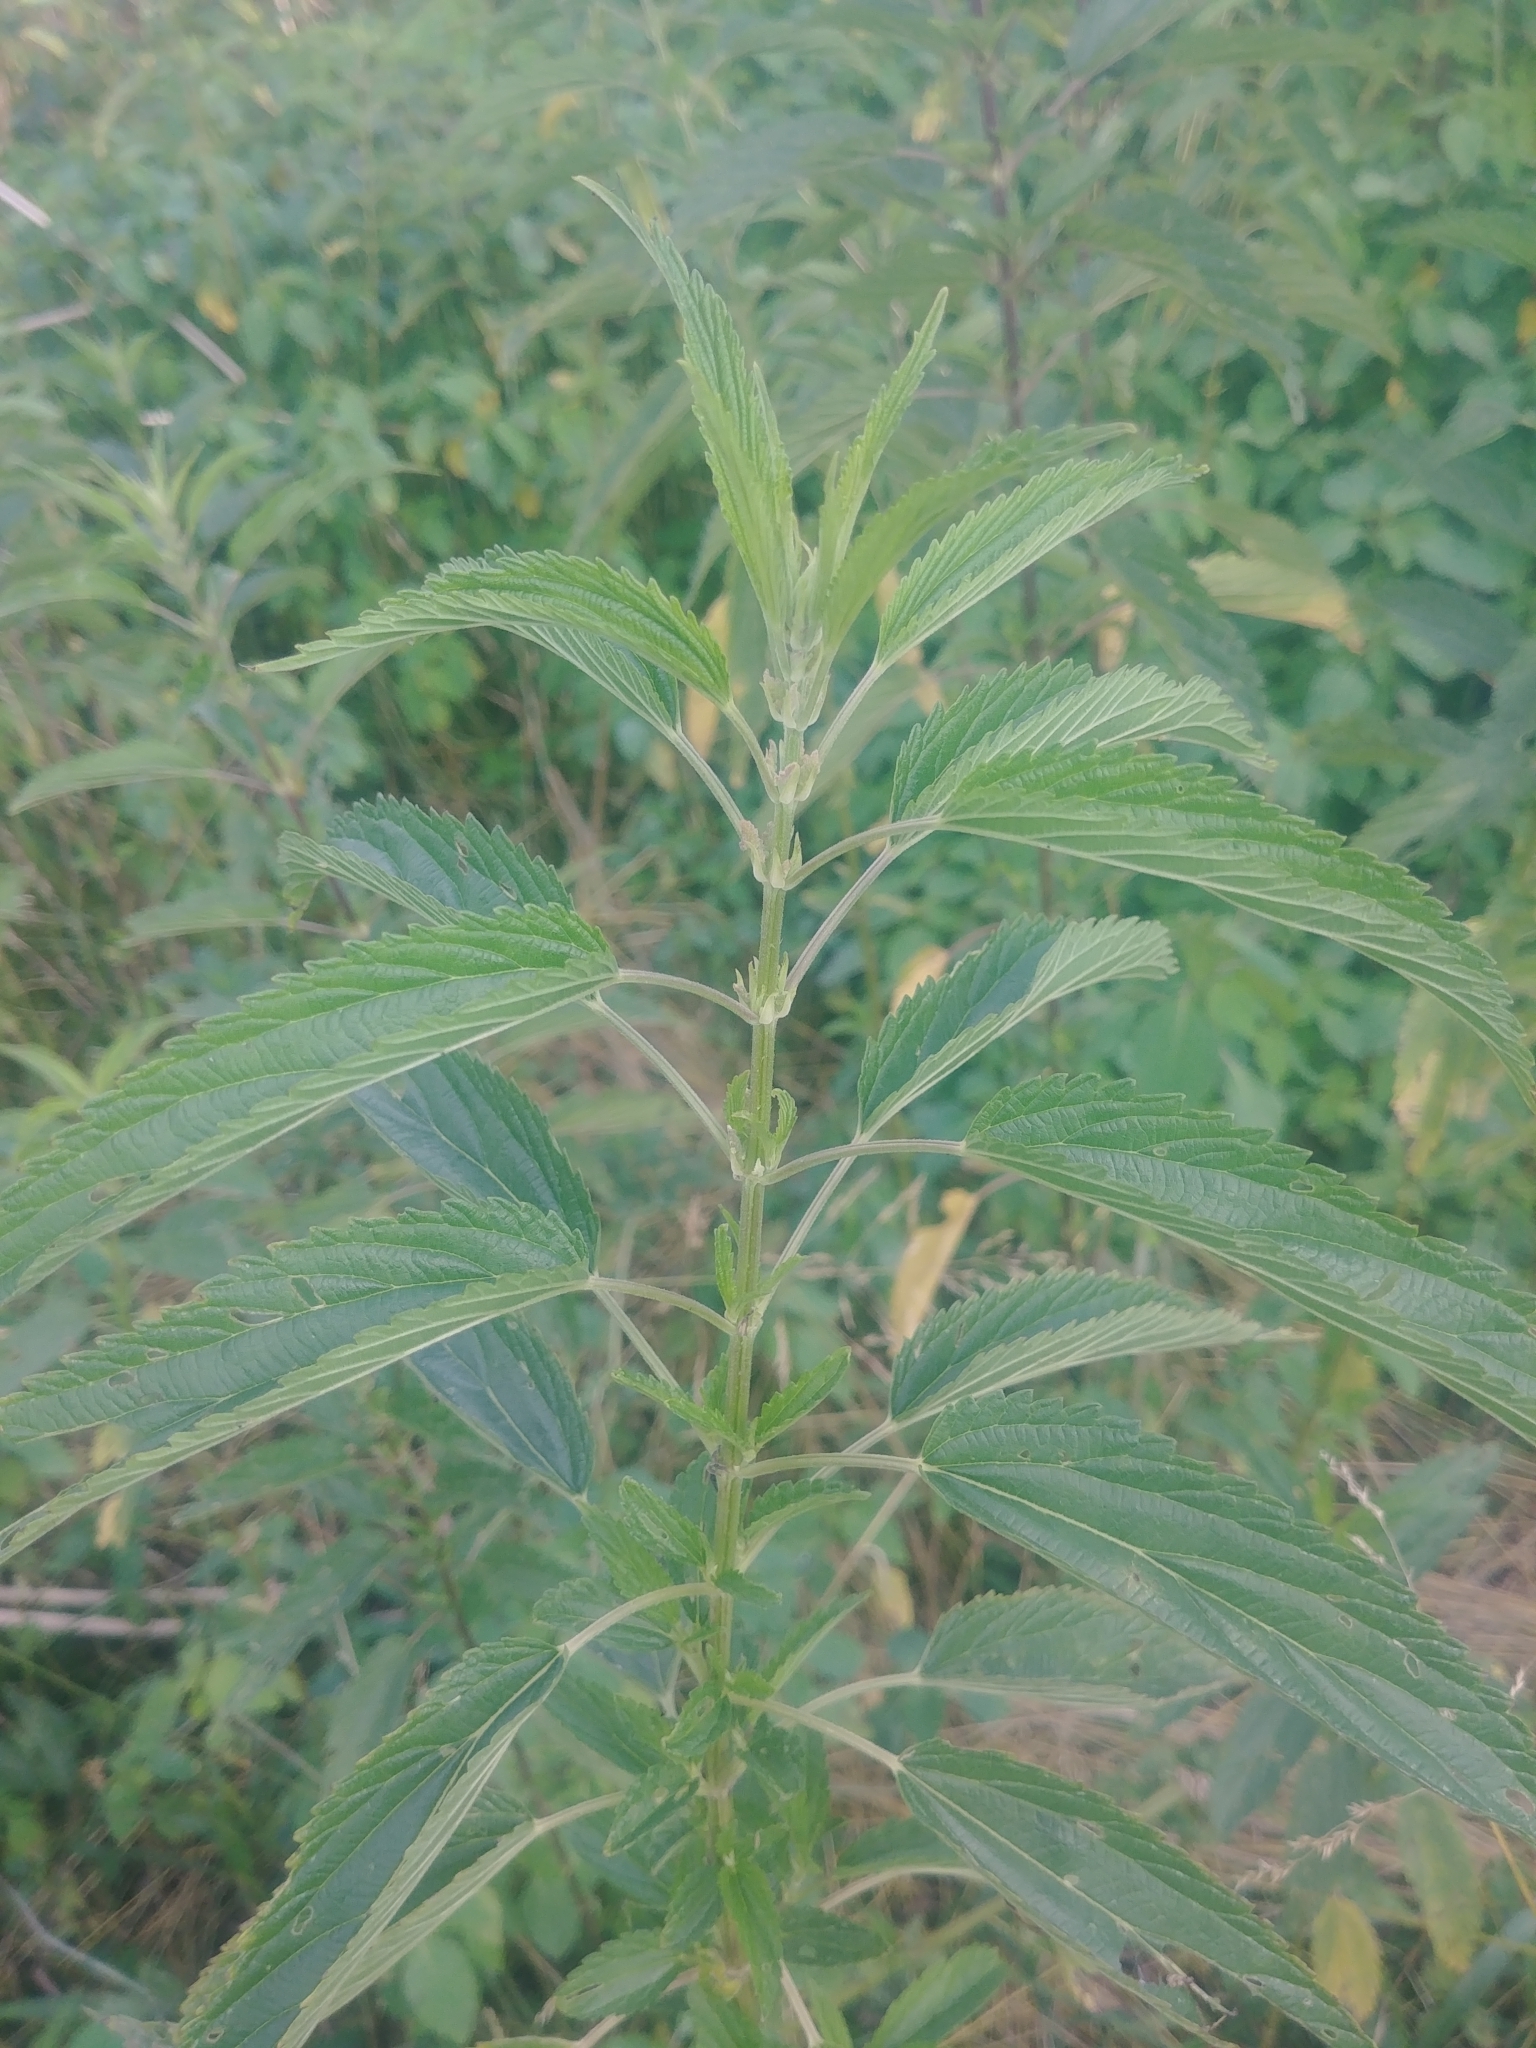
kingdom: Plantae
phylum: Tracheophyta
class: Magnoliopsida
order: Rosales
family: Urticaceae
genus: Urtica
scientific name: Urtica gracilis
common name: Slender stinging nettle
